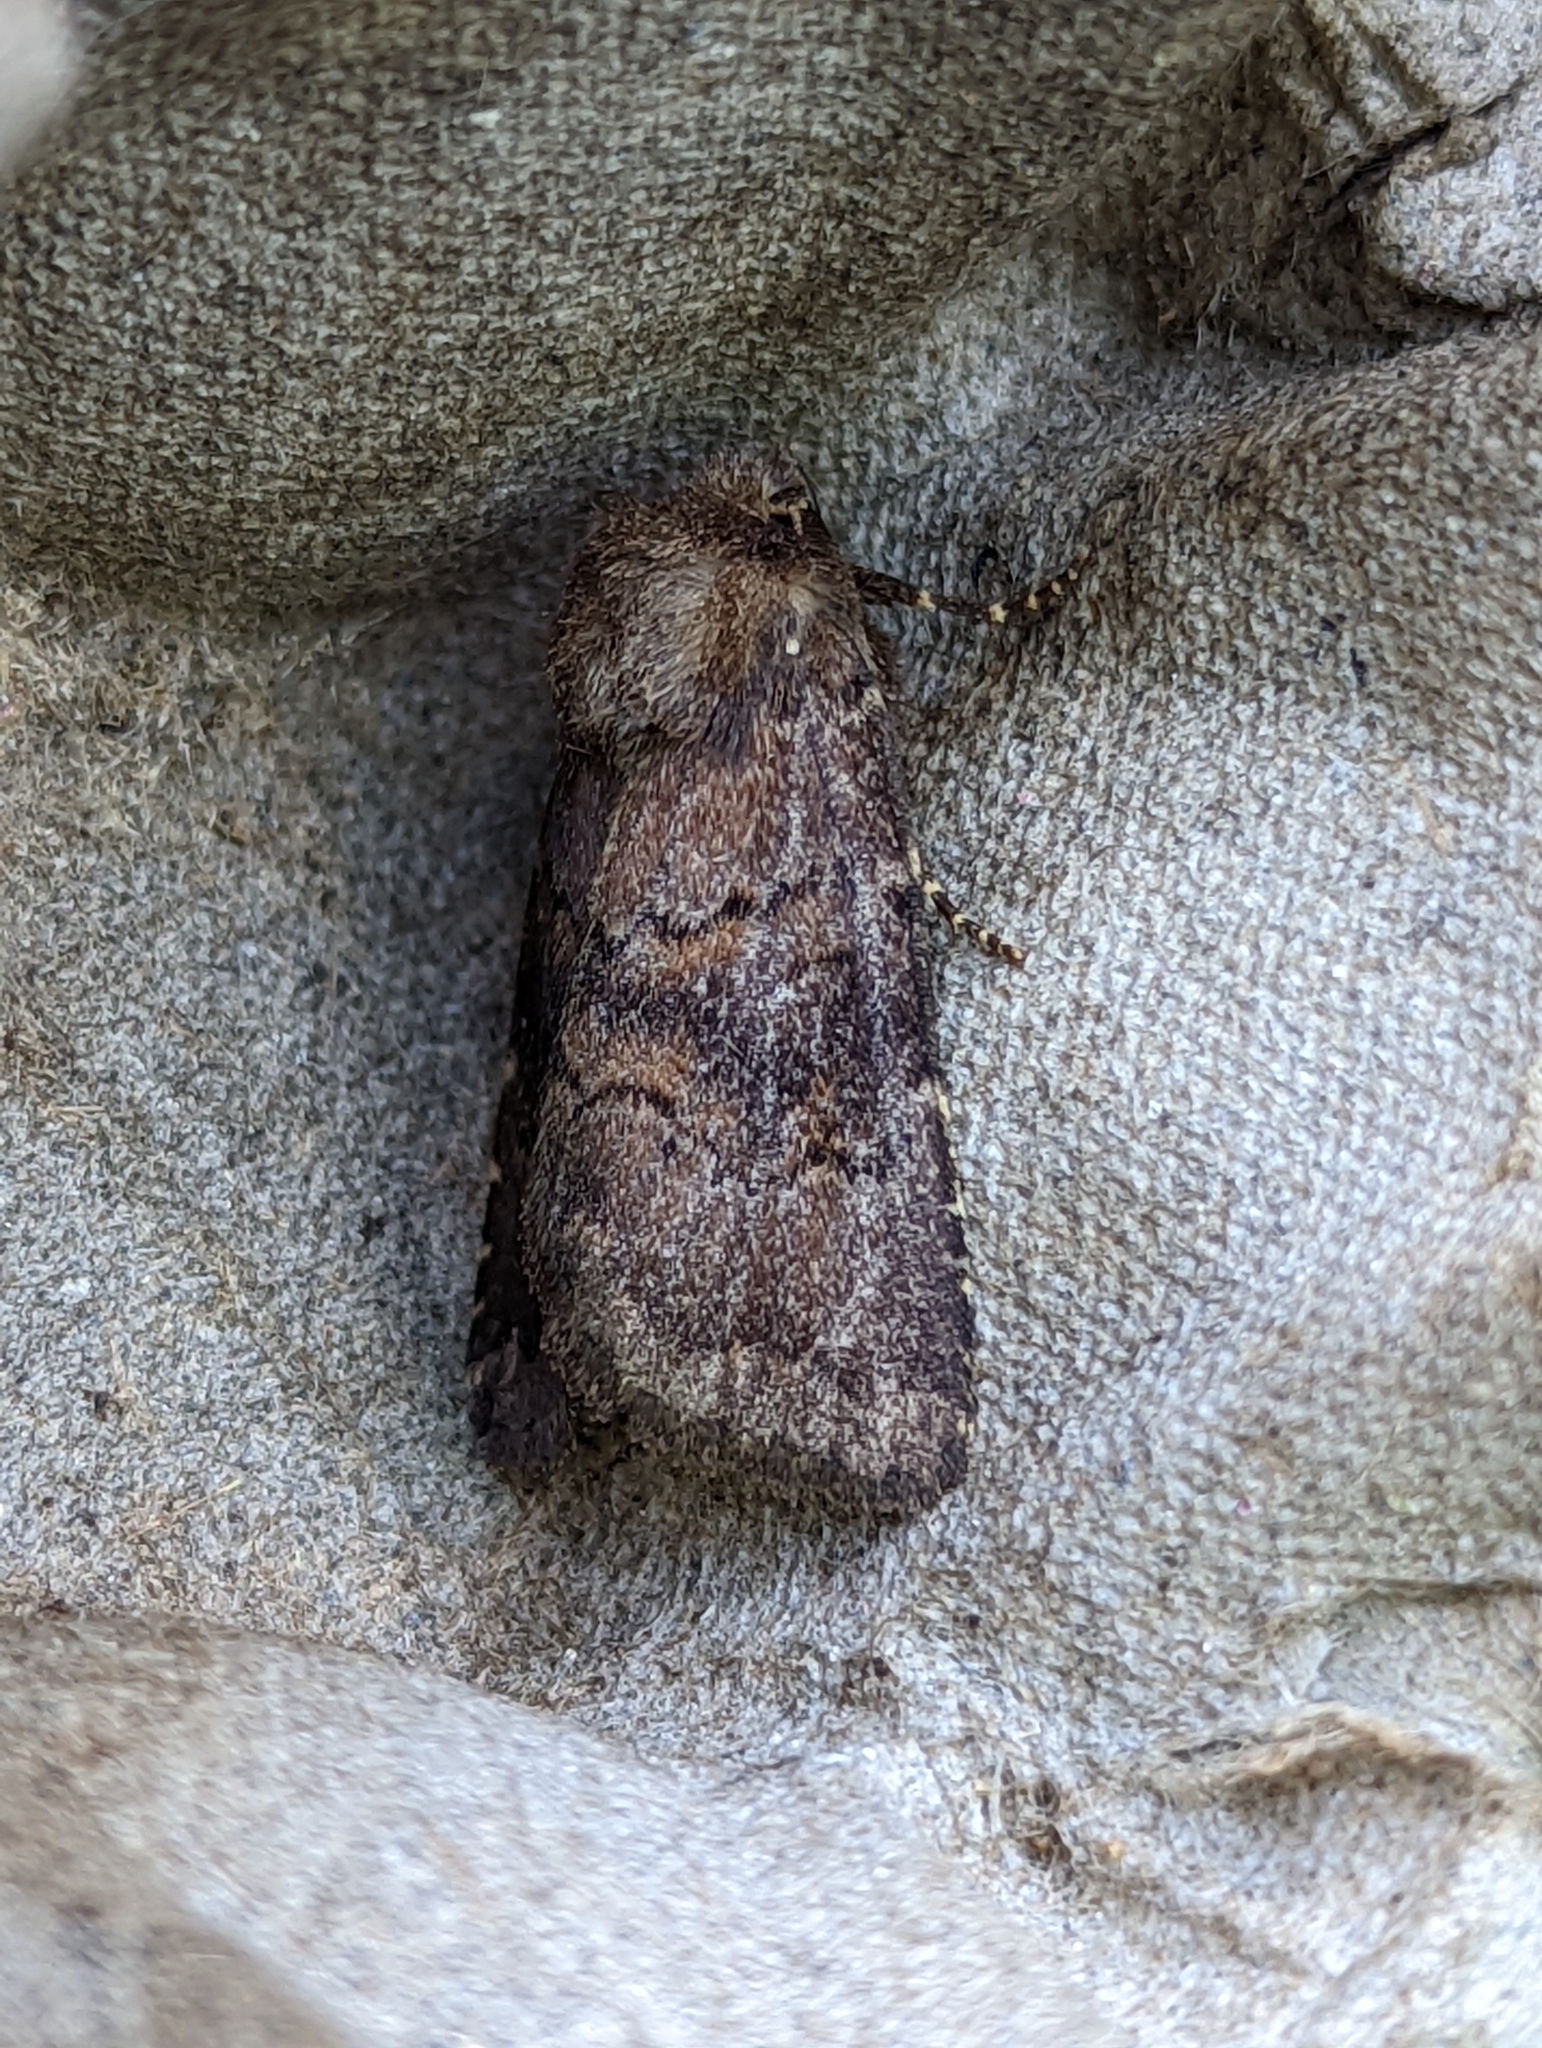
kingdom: Animalia
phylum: Arthropoda
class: Insecta
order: Lepidoptera
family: Noctuidae
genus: Charanyca
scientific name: Charanyca ferruginea
